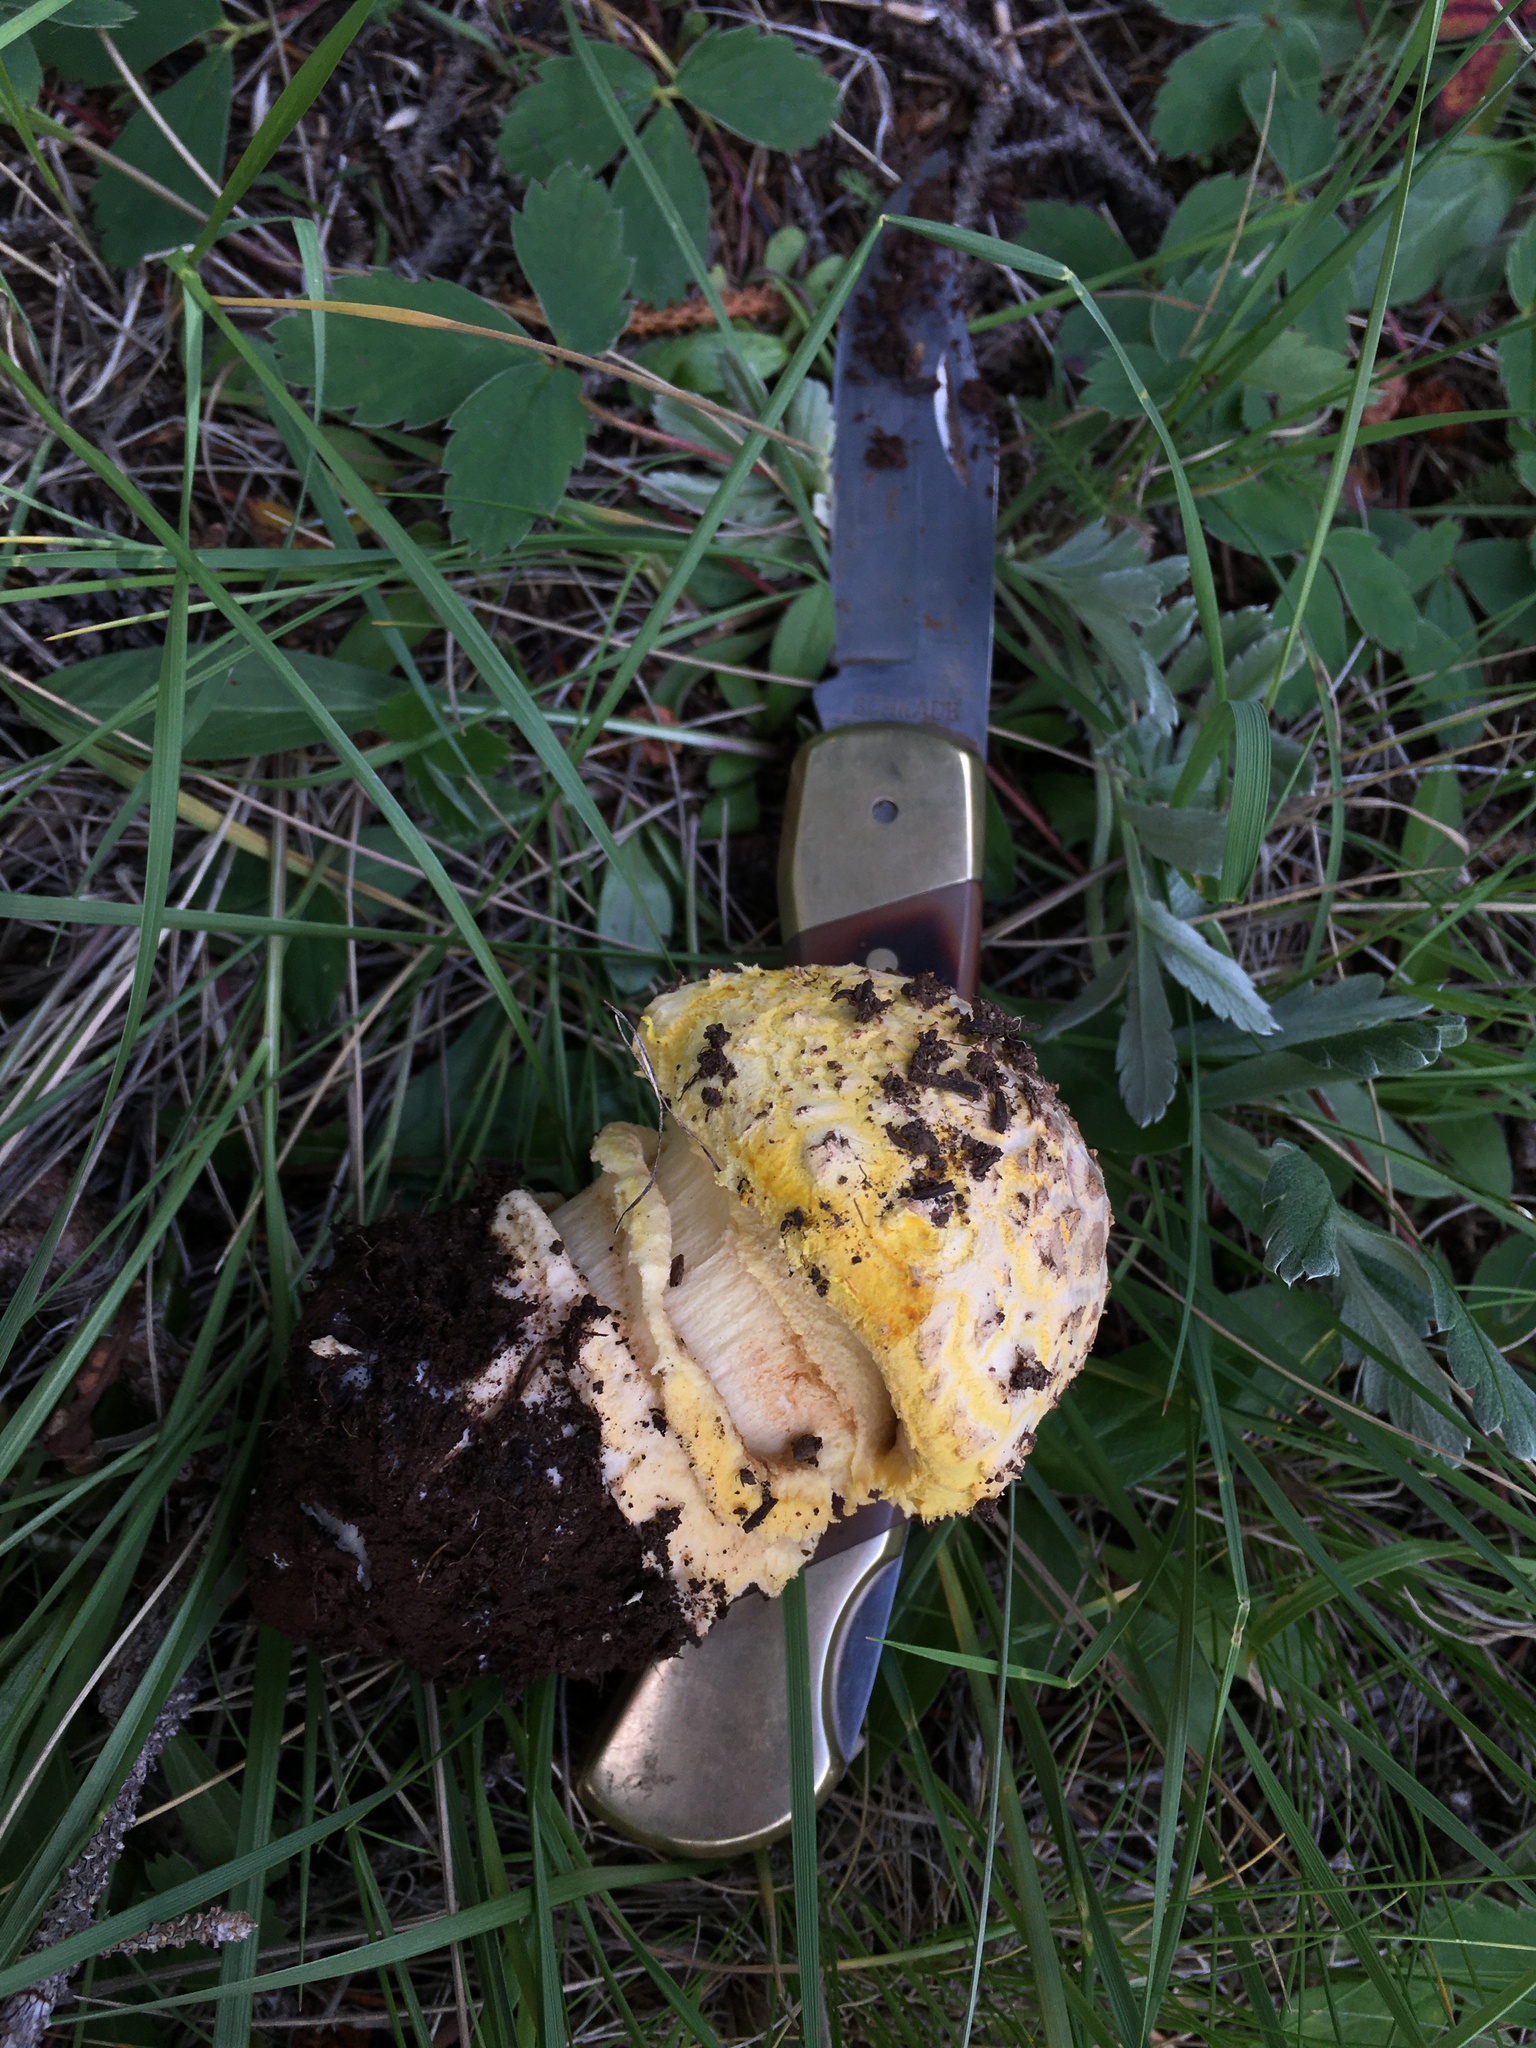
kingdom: Fungi
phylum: Basidiomycota
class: Agaricomycetes
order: Agaricales
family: Amanitaceae
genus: Amanita
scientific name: Amanita muscaria
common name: Fly agaric
